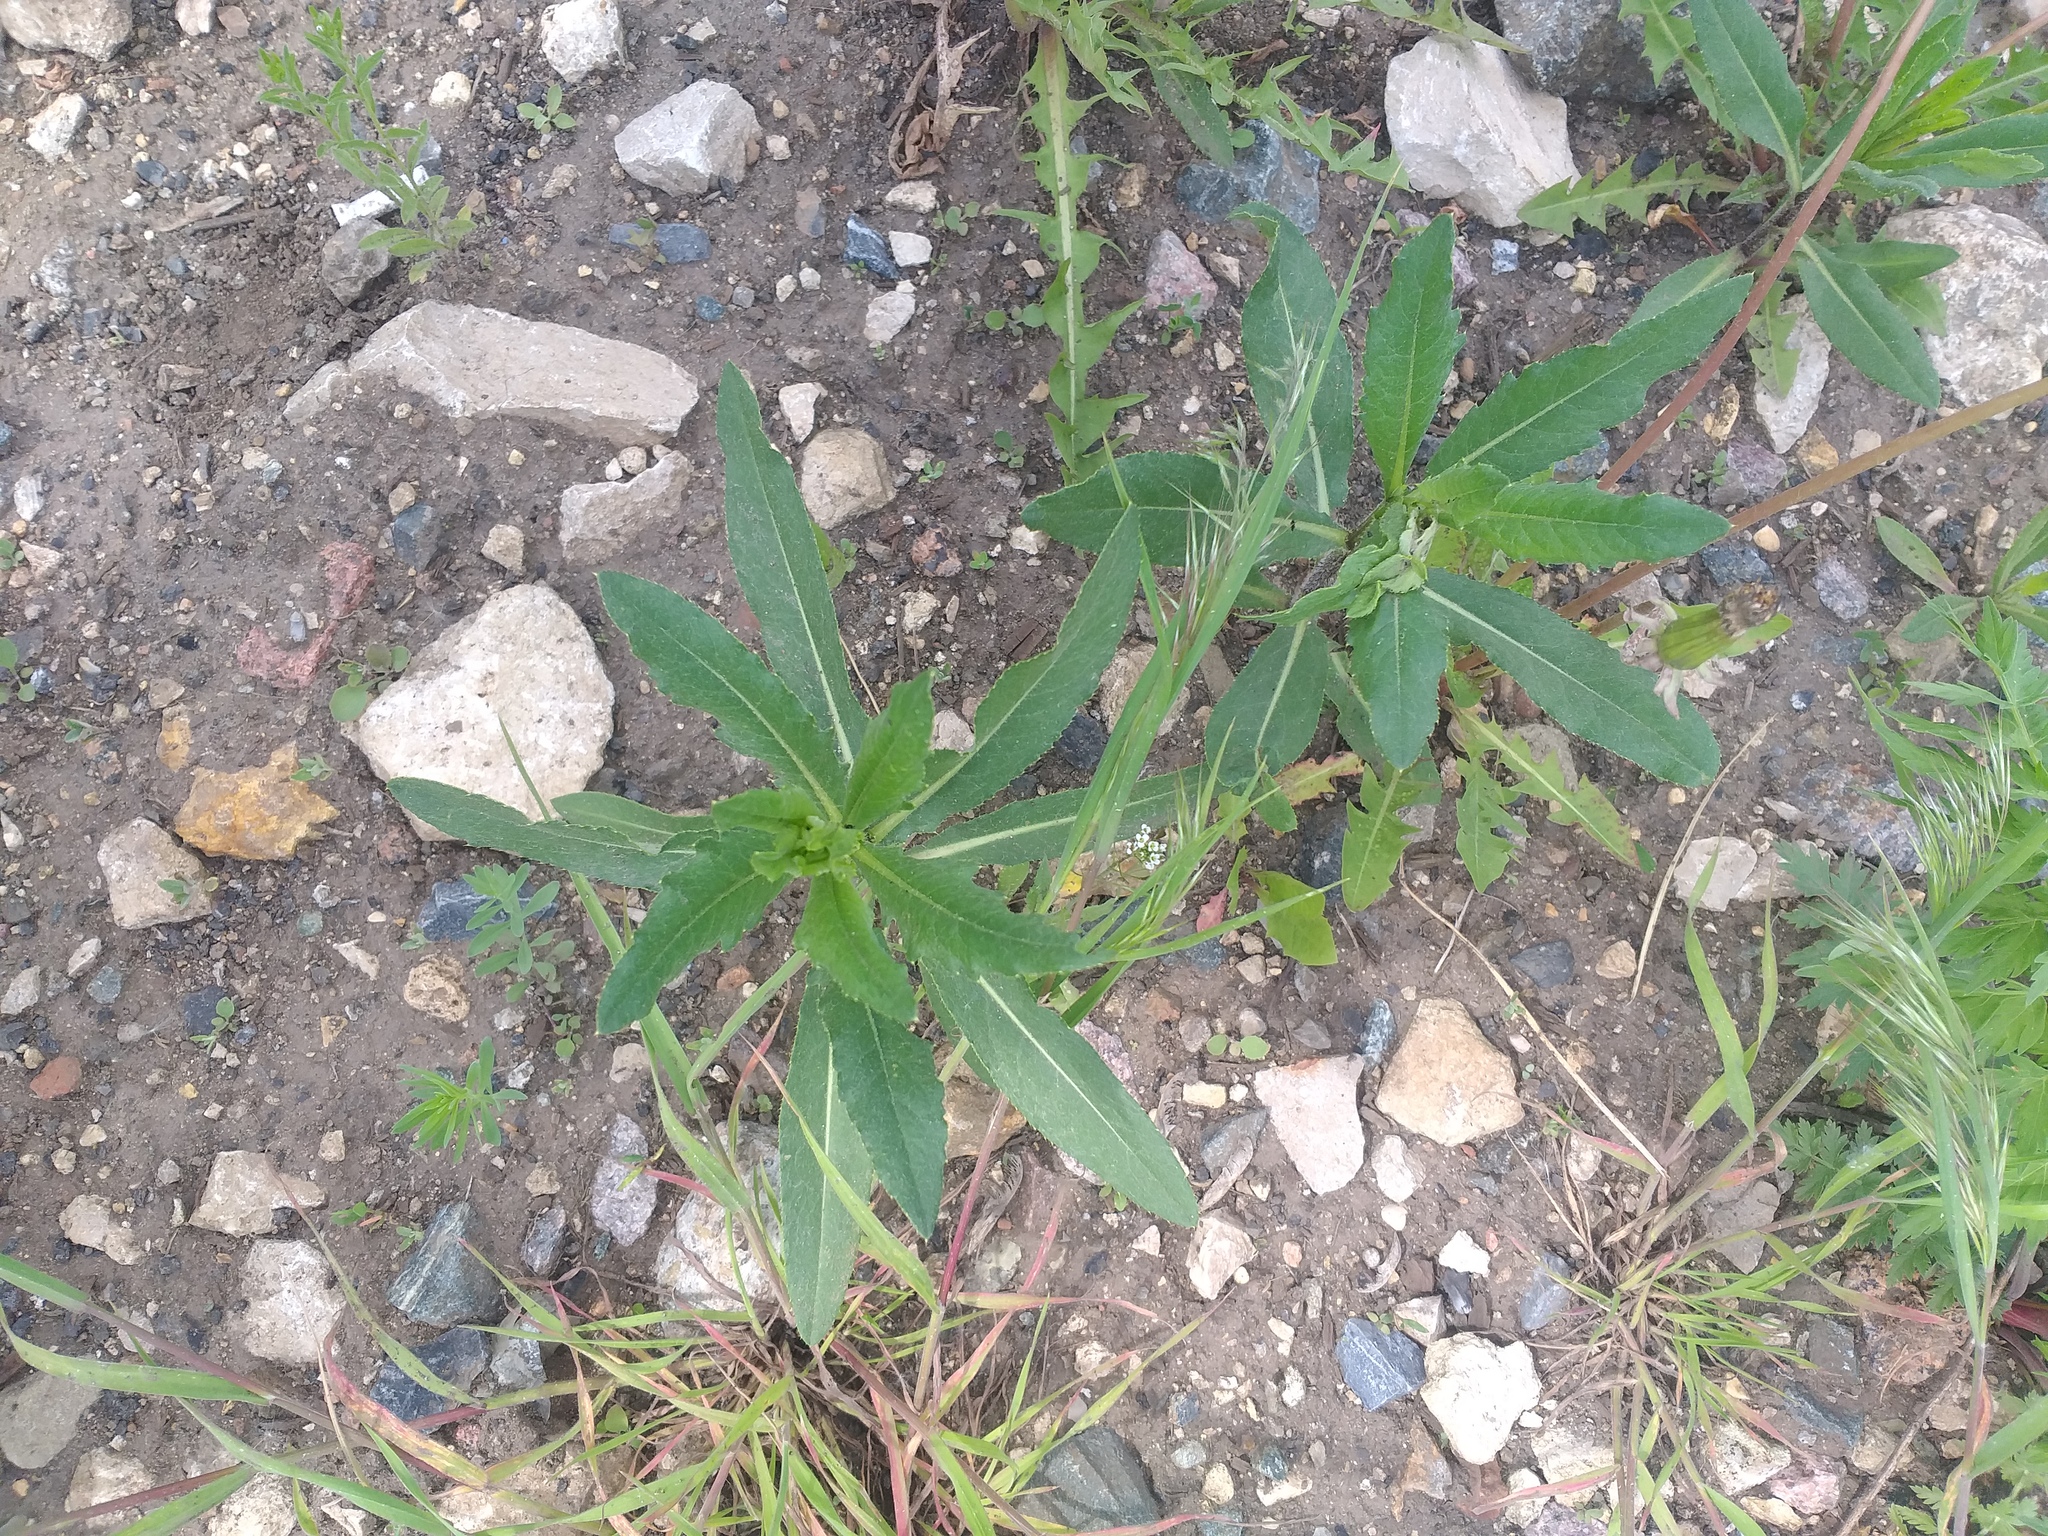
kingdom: Plantae
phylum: Tracheophyta
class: Magnoliopsida
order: Asterales
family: Asteraceae
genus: Cirsium
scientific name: Cirsium arvense
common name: Creeping thistle
